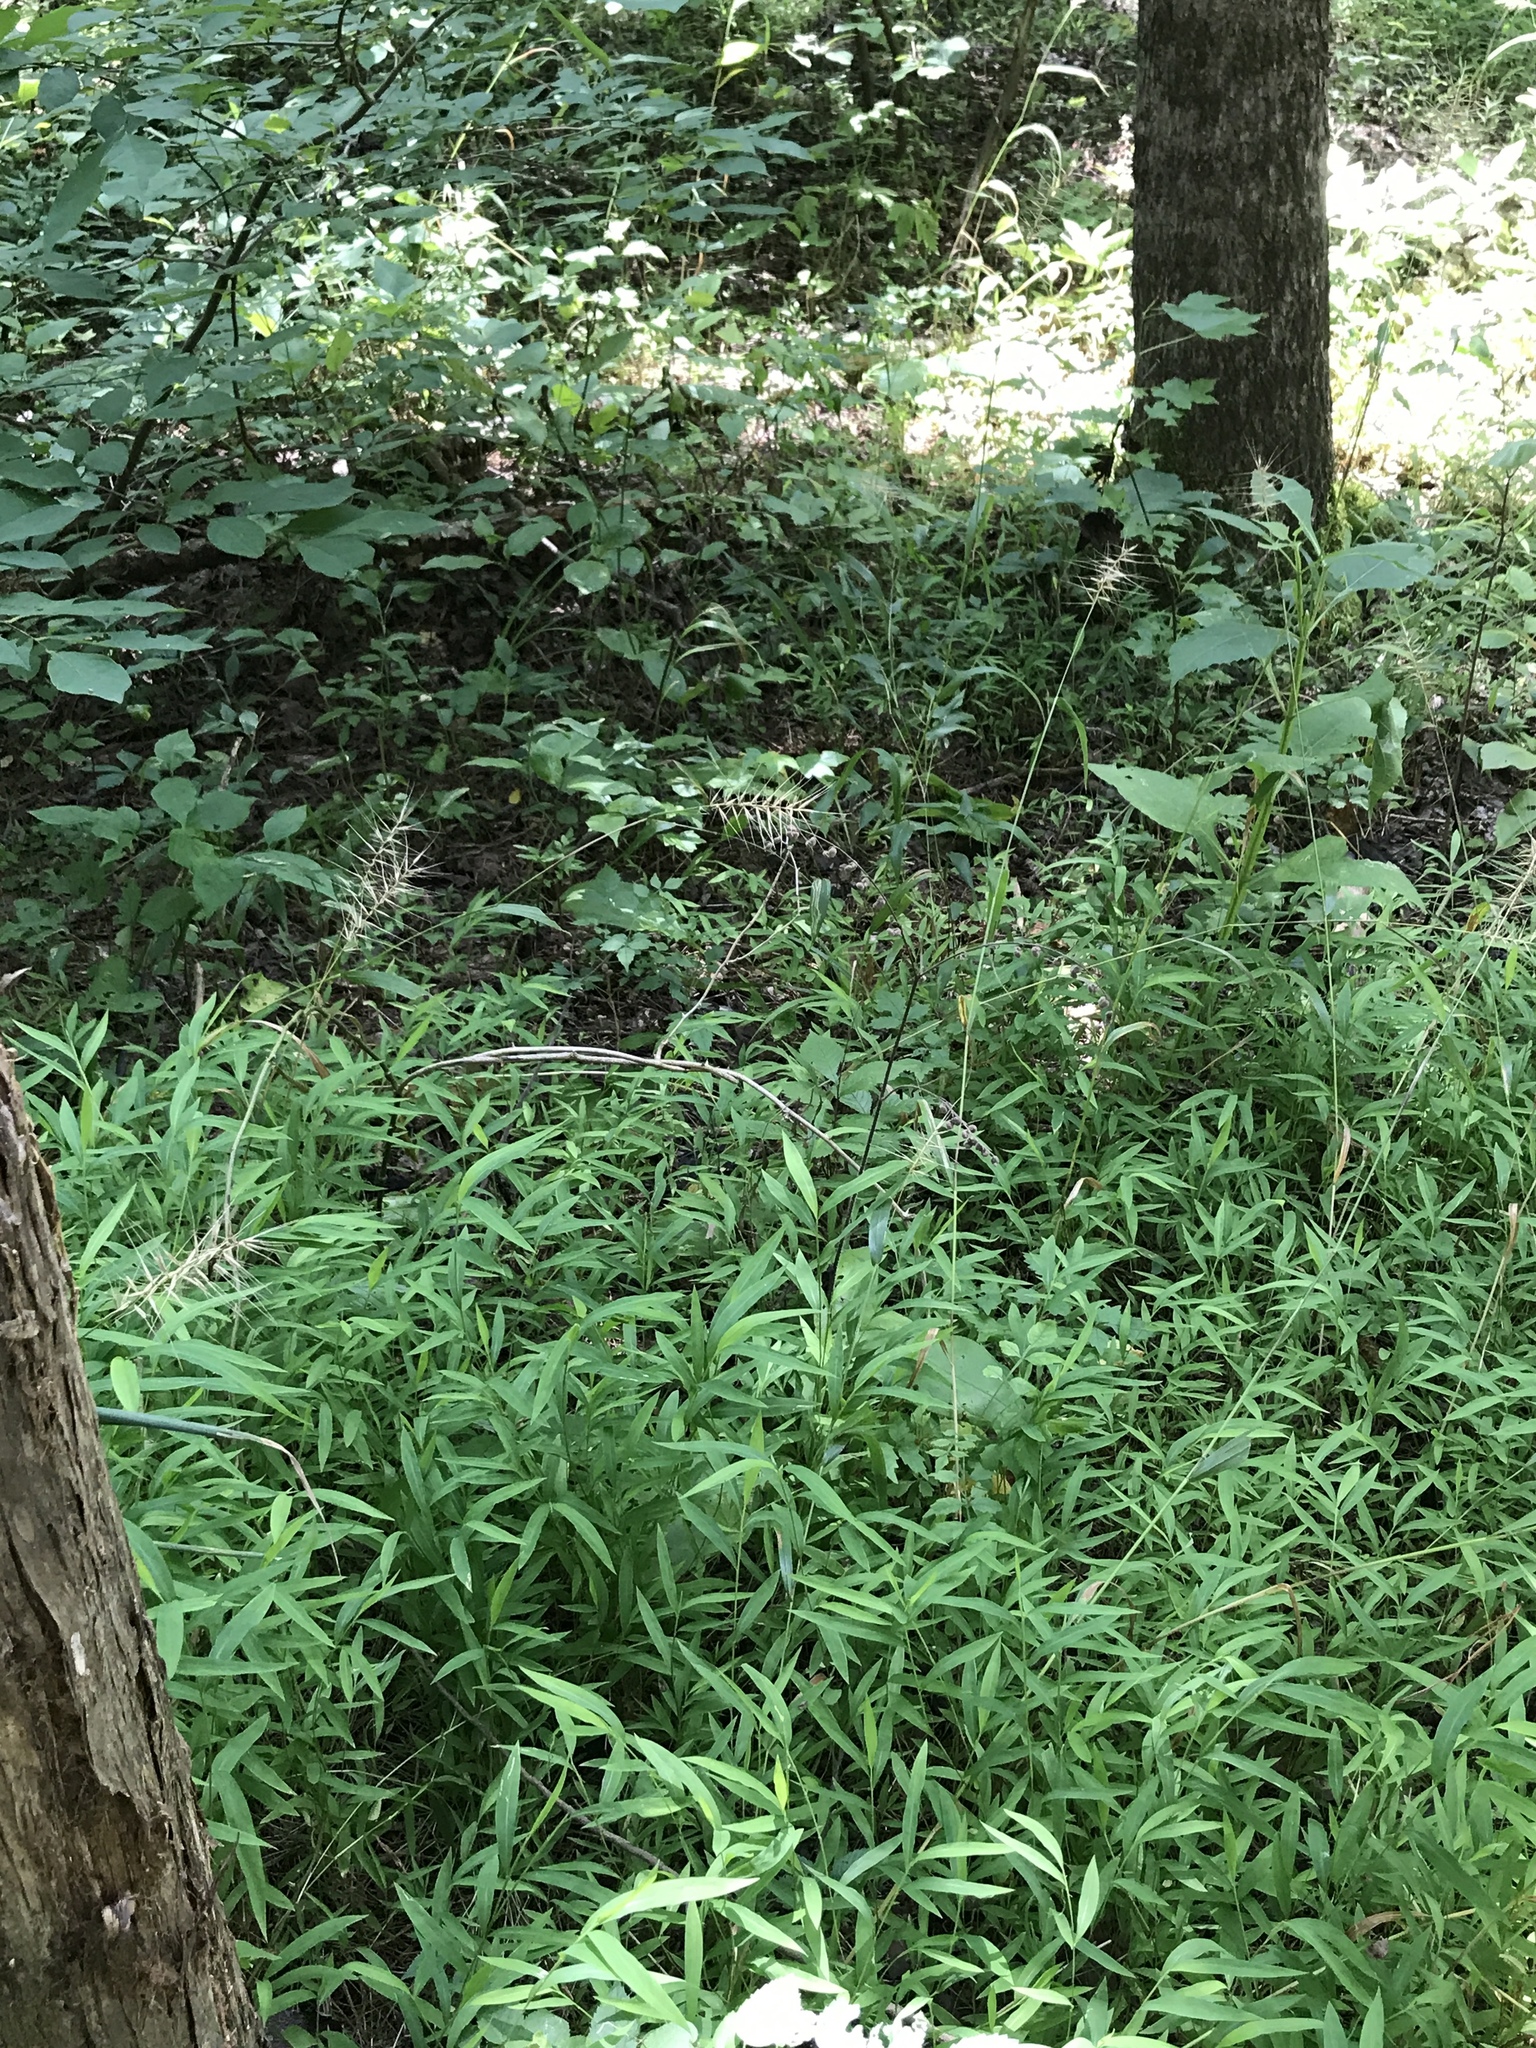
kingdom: Plantae
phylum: Tracheophyta
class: Liliopsida
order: Poales
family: Poaceae
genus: Elymus
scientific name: Elymus hystrix
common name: Bottlebrush grass
